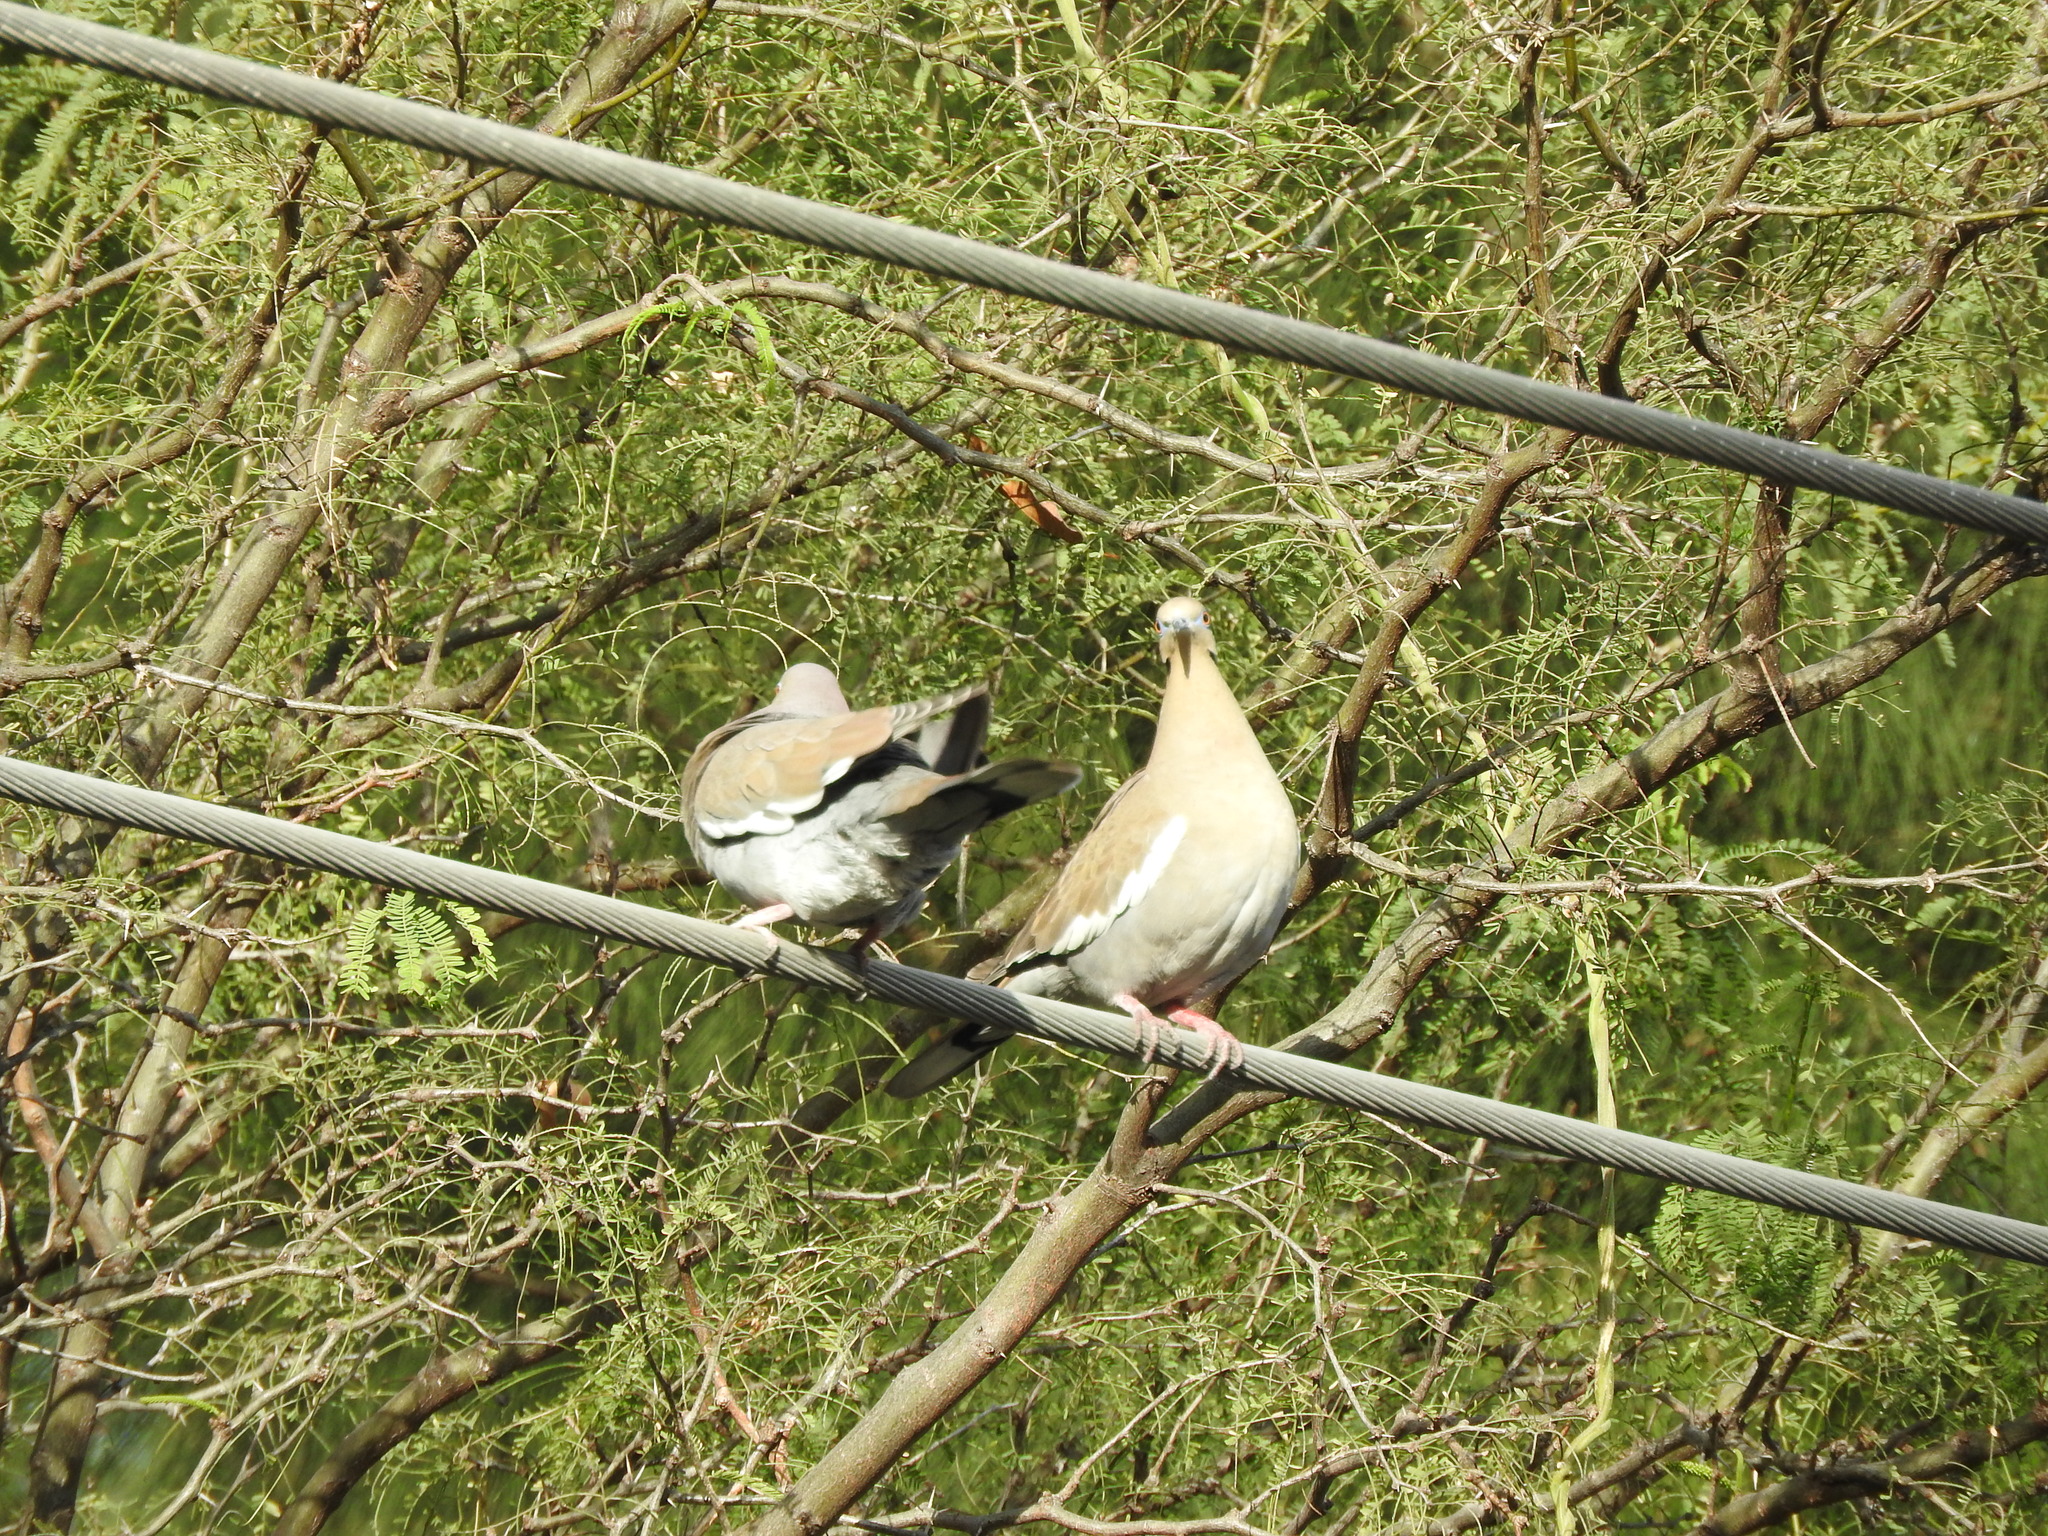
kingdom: Animalia
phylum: Chordata
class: Aves
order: Columbiformes
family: Columbidae
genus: Zenaida
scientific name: Zenaida asiatica
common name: White-winged dove
